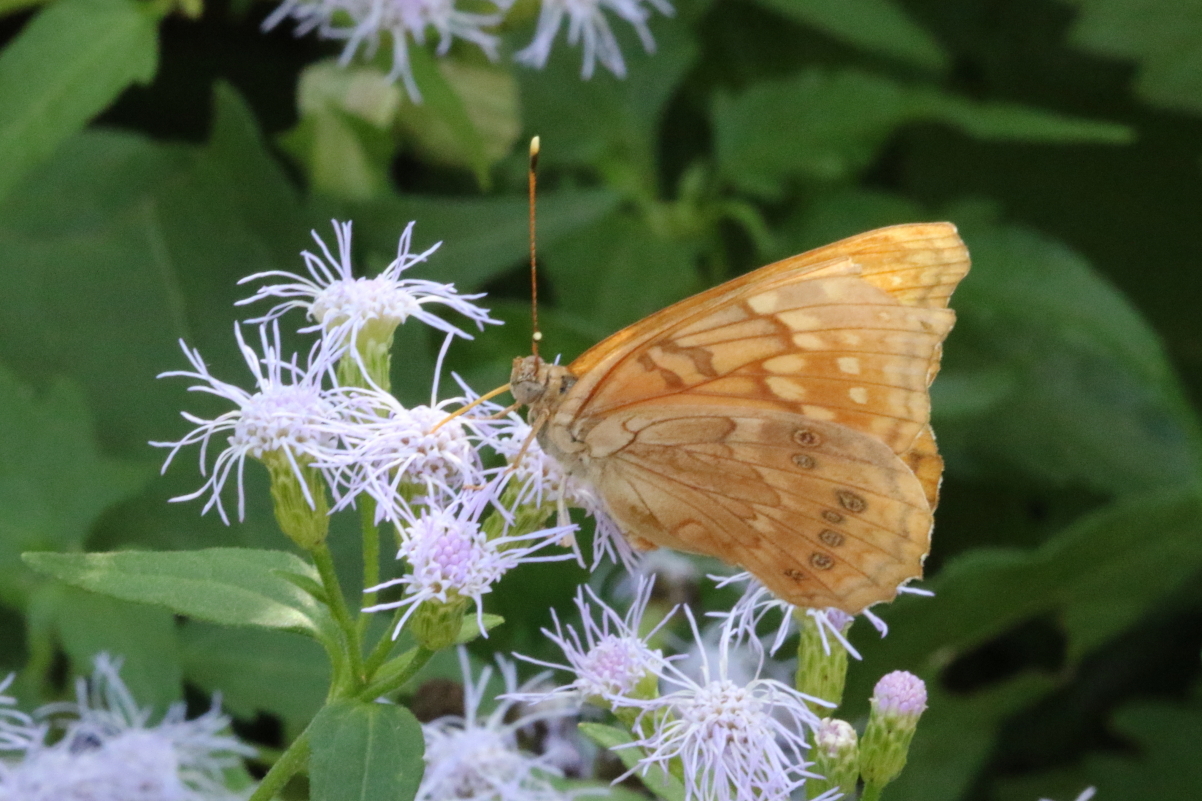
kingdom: Animalia
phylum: Arthropoda
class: Insecta
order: Lepidoptera
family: Nymphalidae
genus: Asterocampa
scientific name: Asterocampa clyton
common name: Tawny emperor
